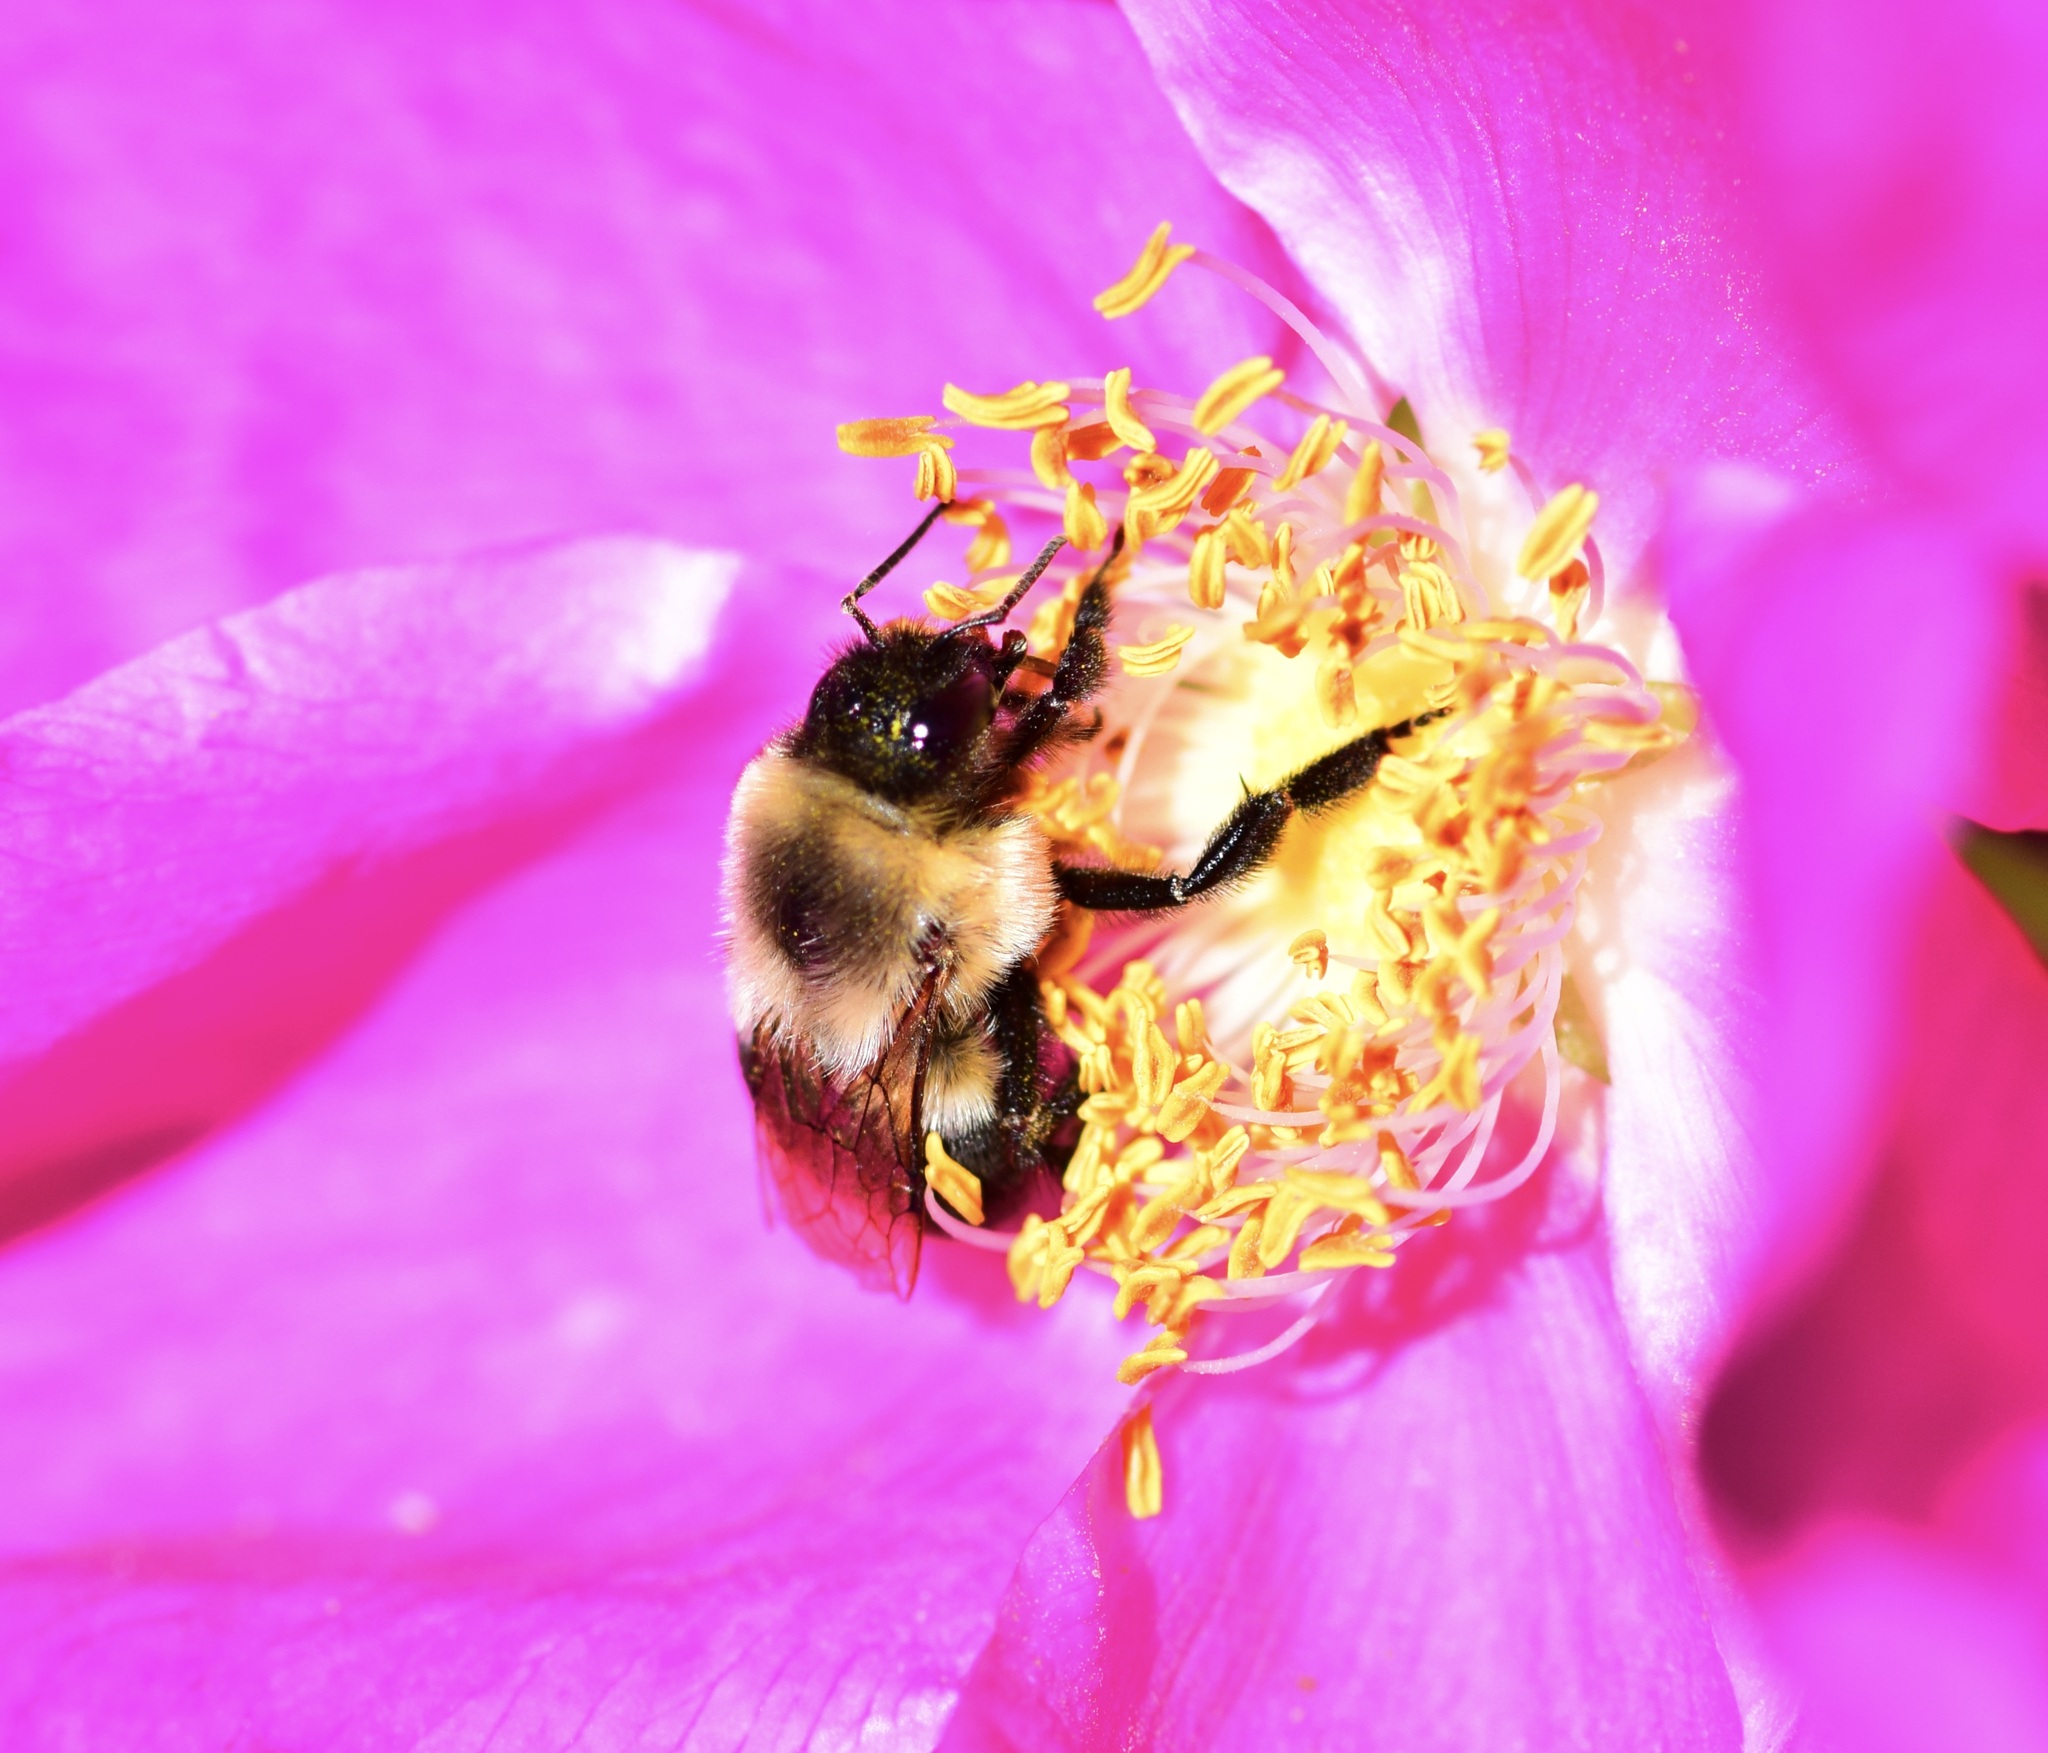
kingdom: Animalia
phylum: Arthropoda
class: Insecta
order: Hymenoptera
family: Apidae
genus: Bombus
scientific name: Bombus impatiens
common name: Common eastern bumble bee
